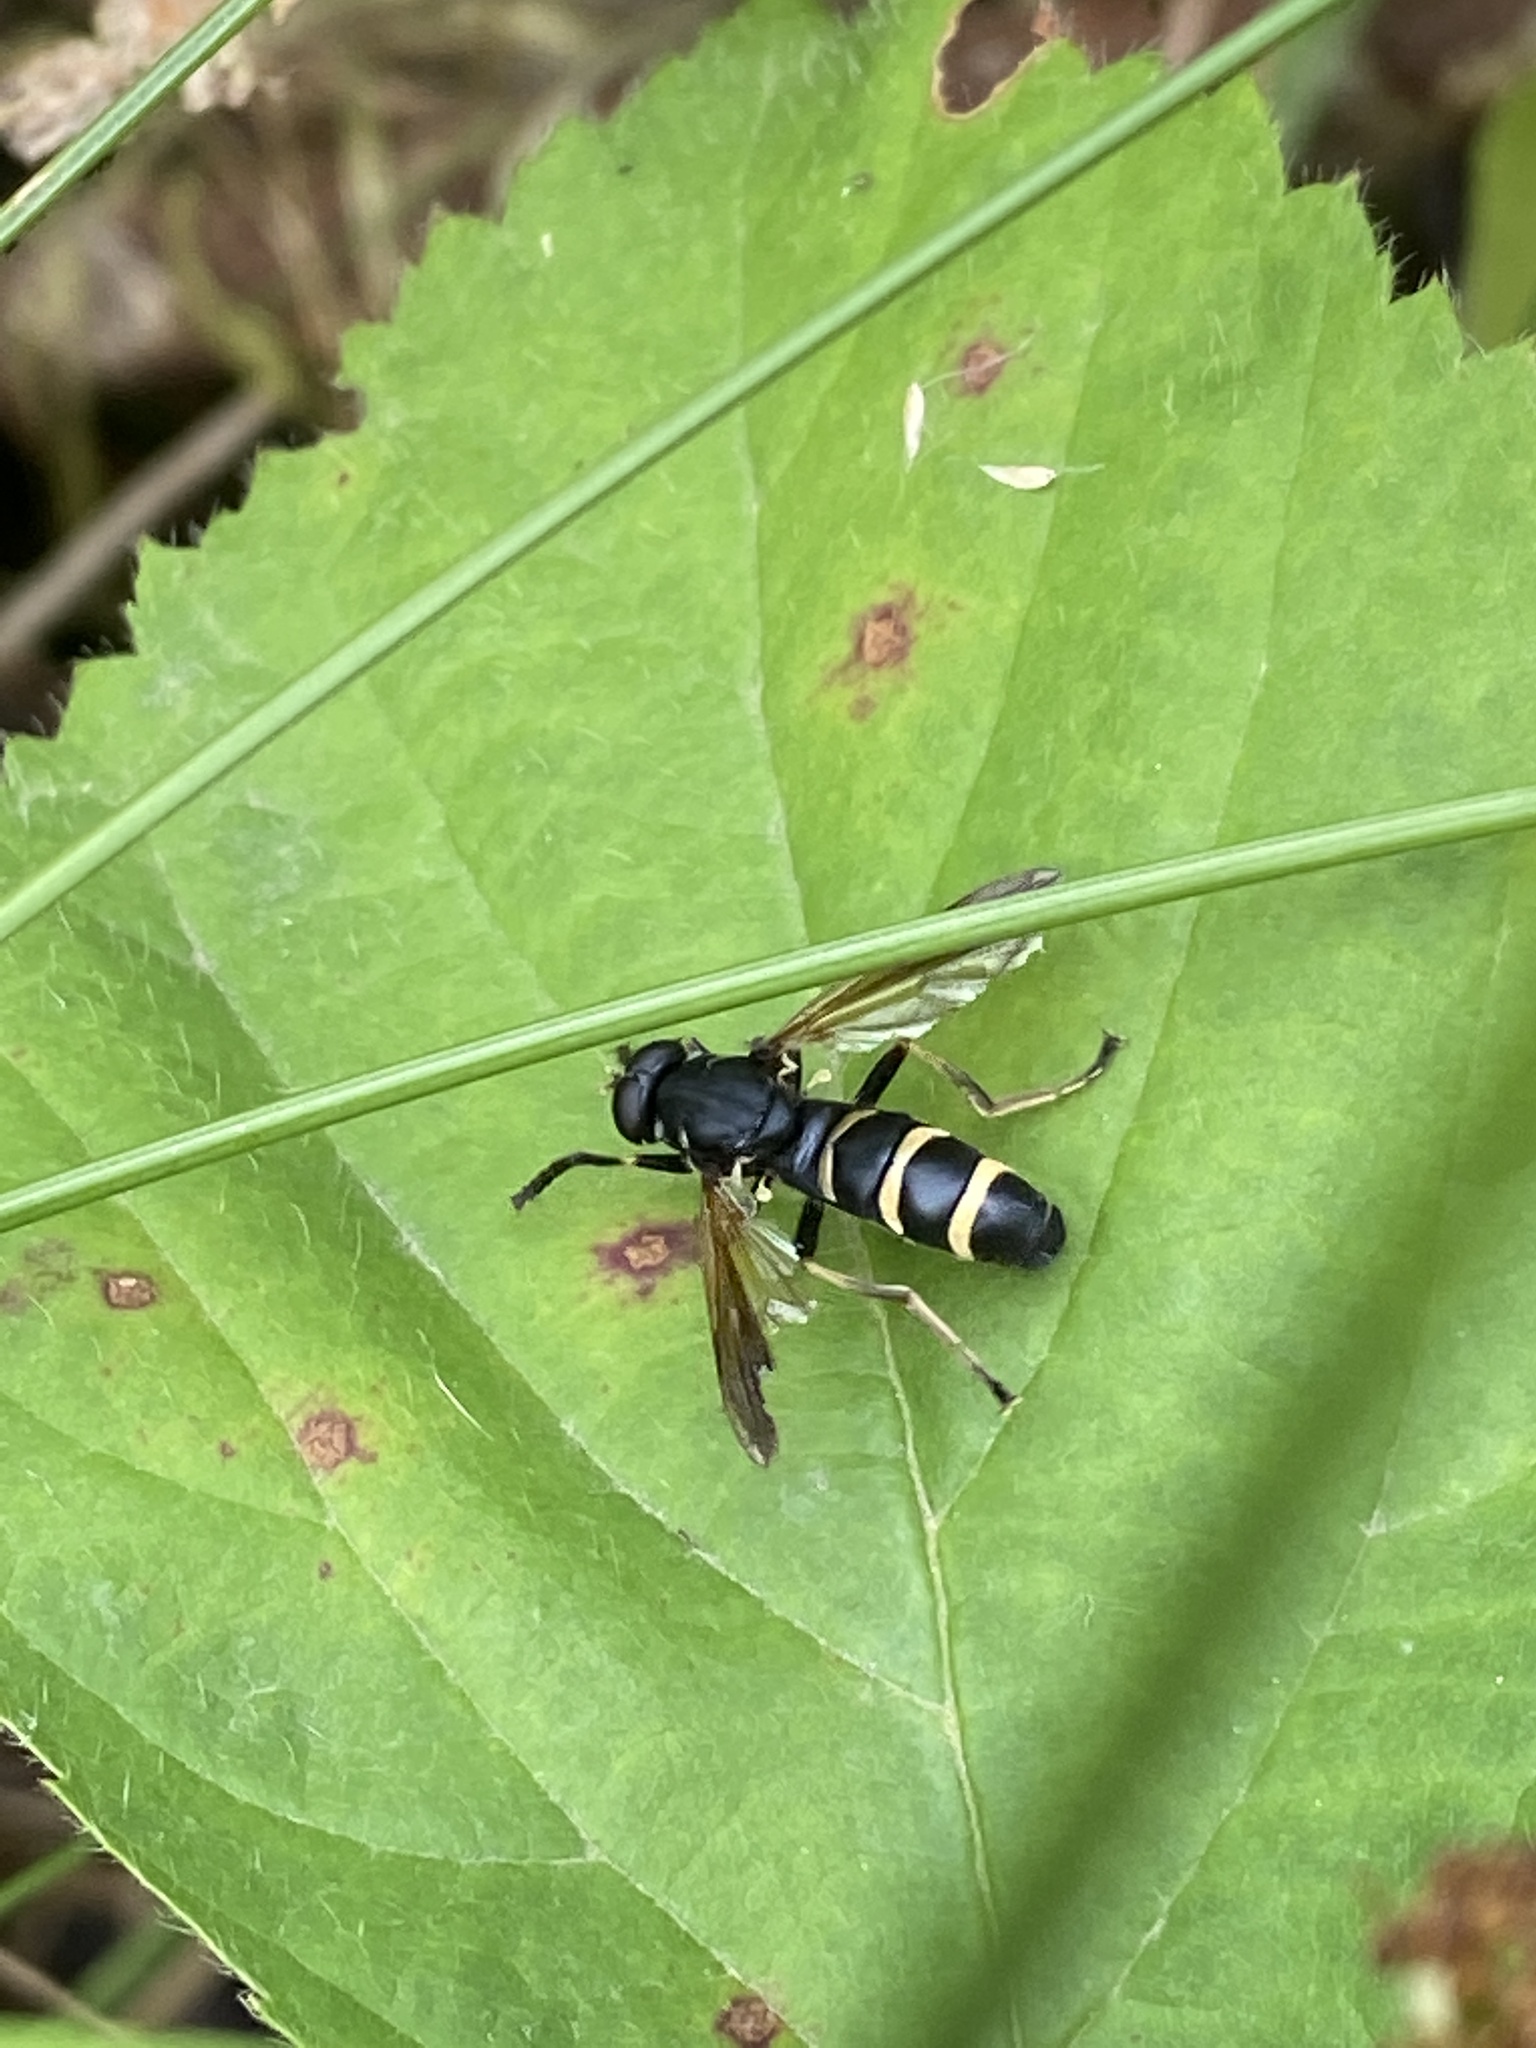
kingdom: Animalia
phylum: Arthropoda
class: Insecta
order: Diptera
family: Syrphidae
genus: Temnostoma
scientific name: Temnostoma bombylans
